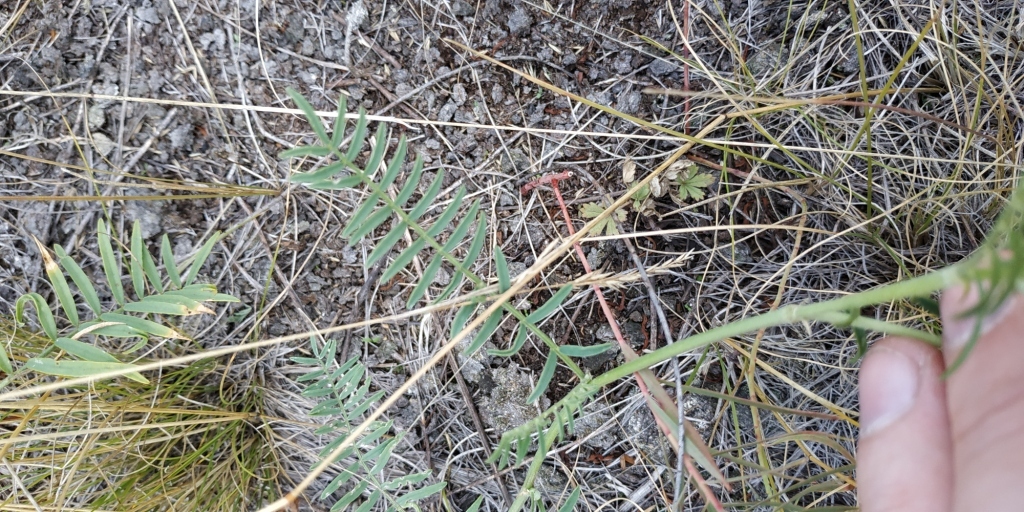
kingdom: Plantae
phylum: Tracheophyta
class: Magnoliopsida
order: Fabales
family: Fabaceae
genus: Astragalus
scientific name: Astragalus onobrychis
